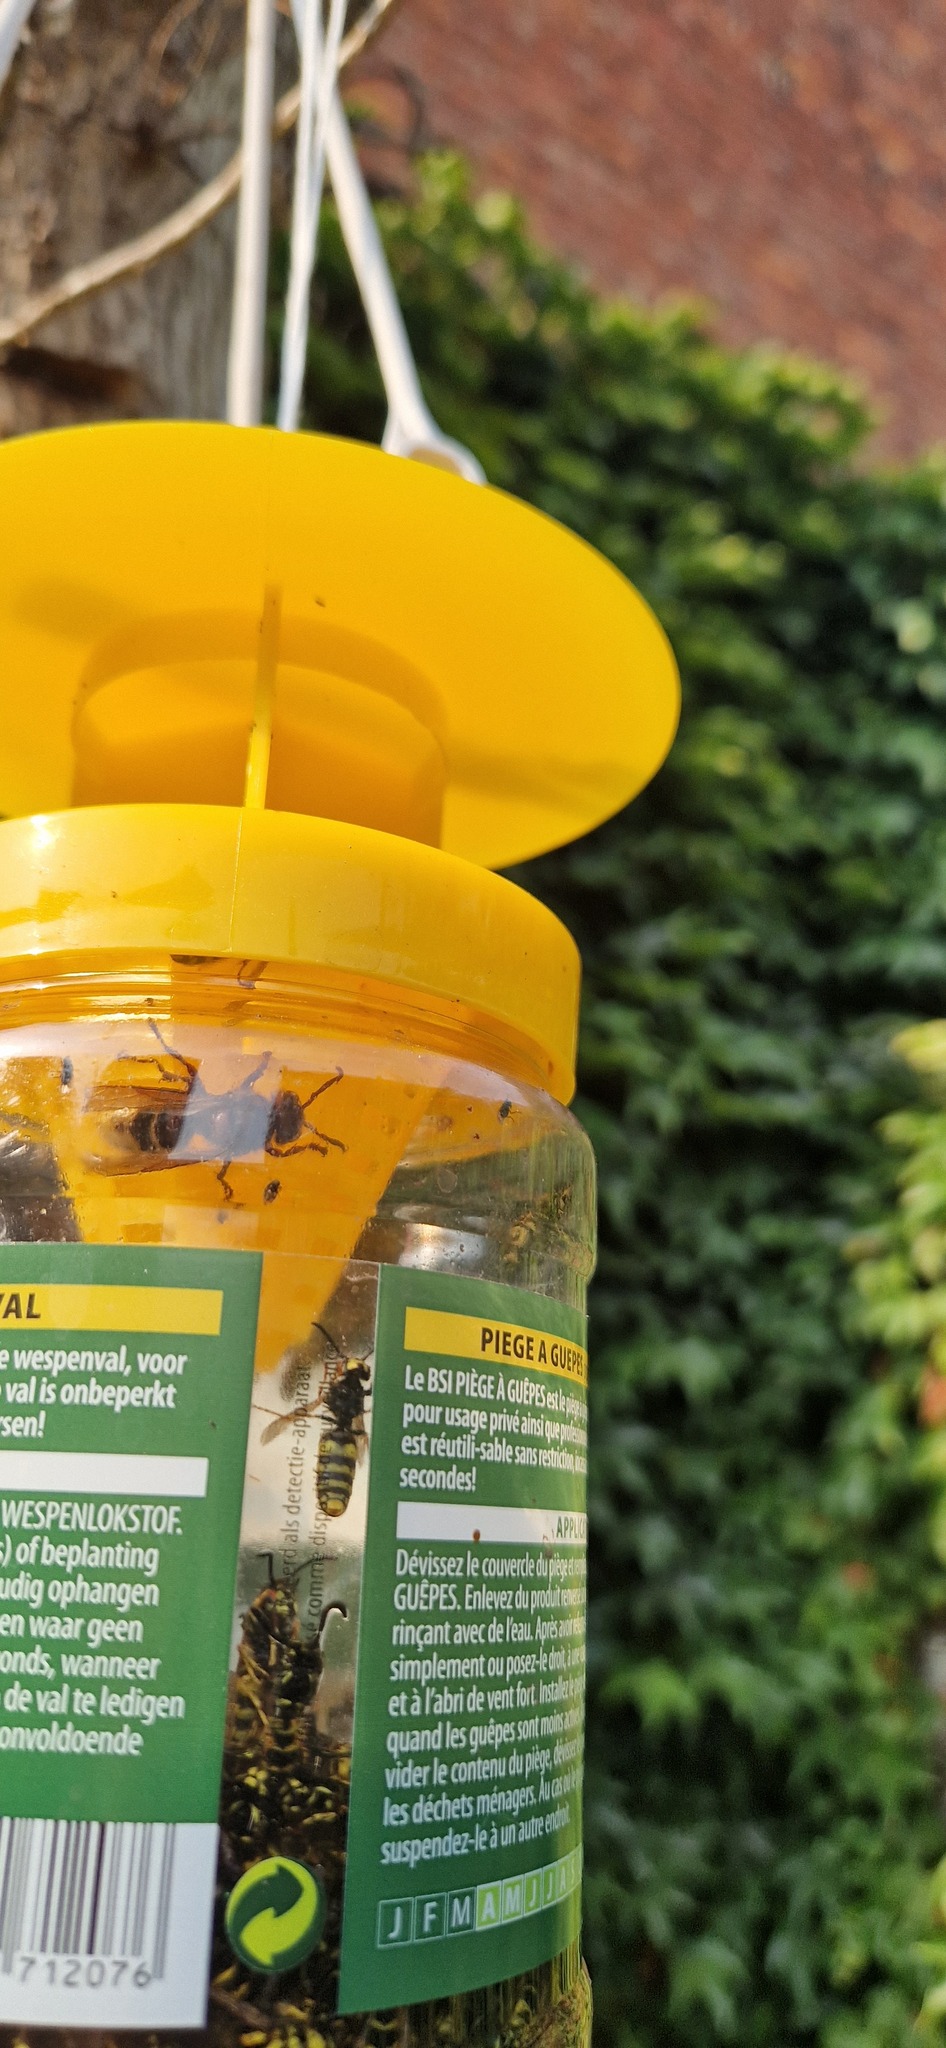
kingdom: Animalia
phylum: Arthropoda
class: Insecta
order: Hymenoptera
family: Vespidae
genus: Vespa
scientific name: Vespa crabro
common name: Hornet
